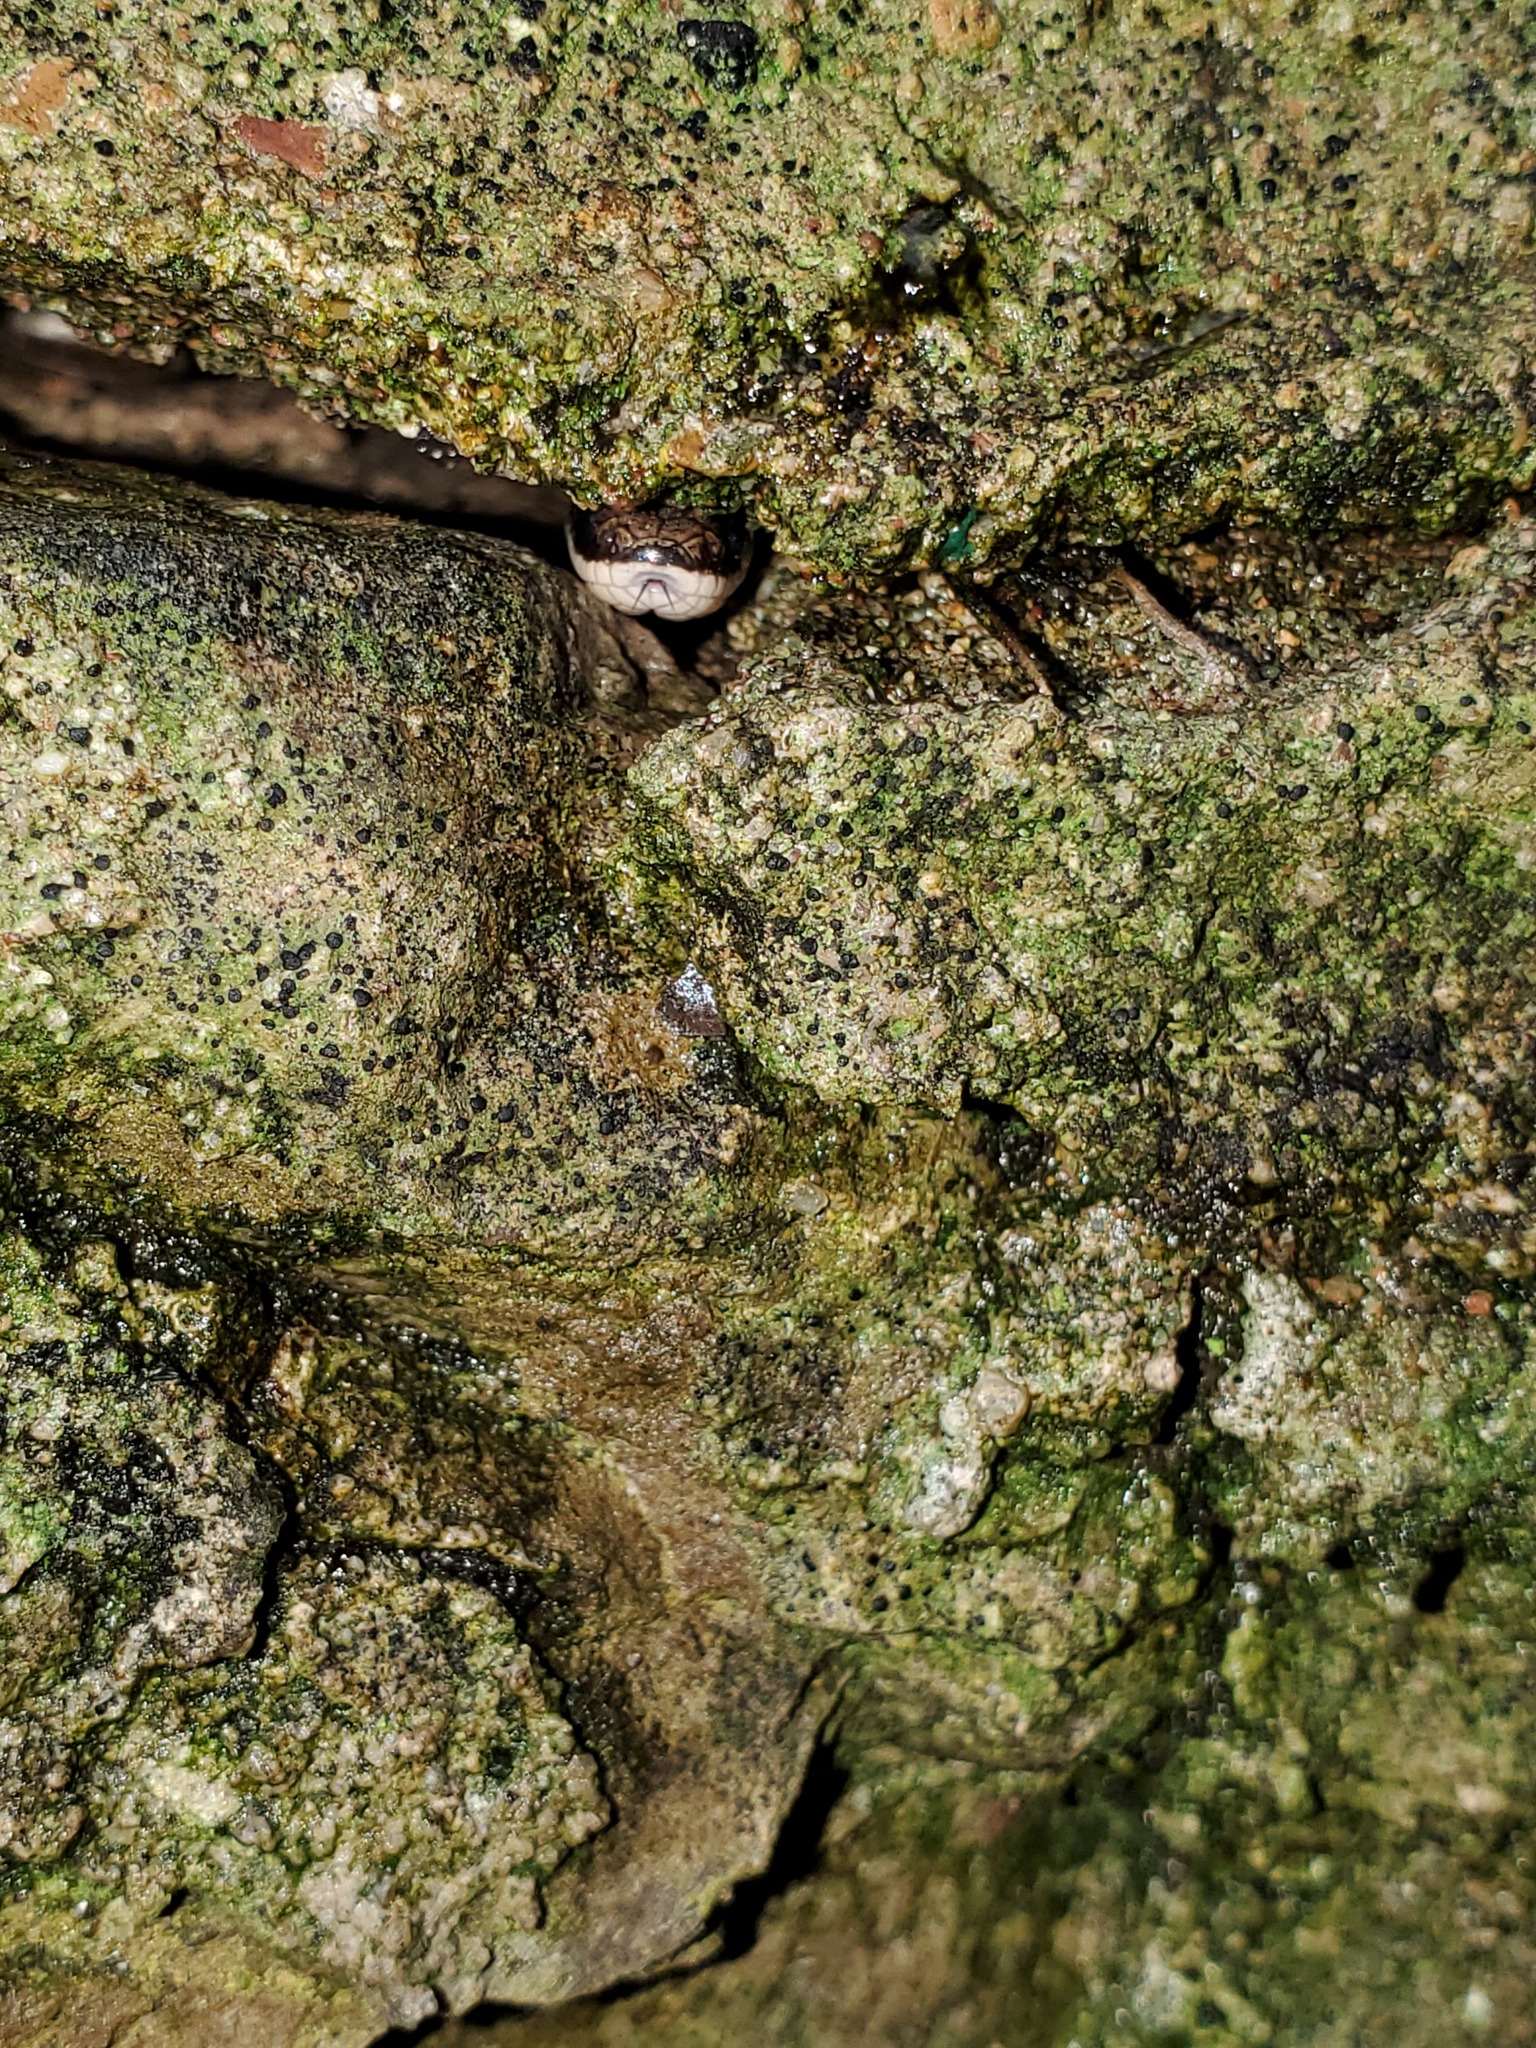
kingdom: Animalia
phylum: Chordata
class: Squamata
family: Colubridae
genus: Diadophis
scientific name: Diadophis punctatus
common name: Ringneck snake
